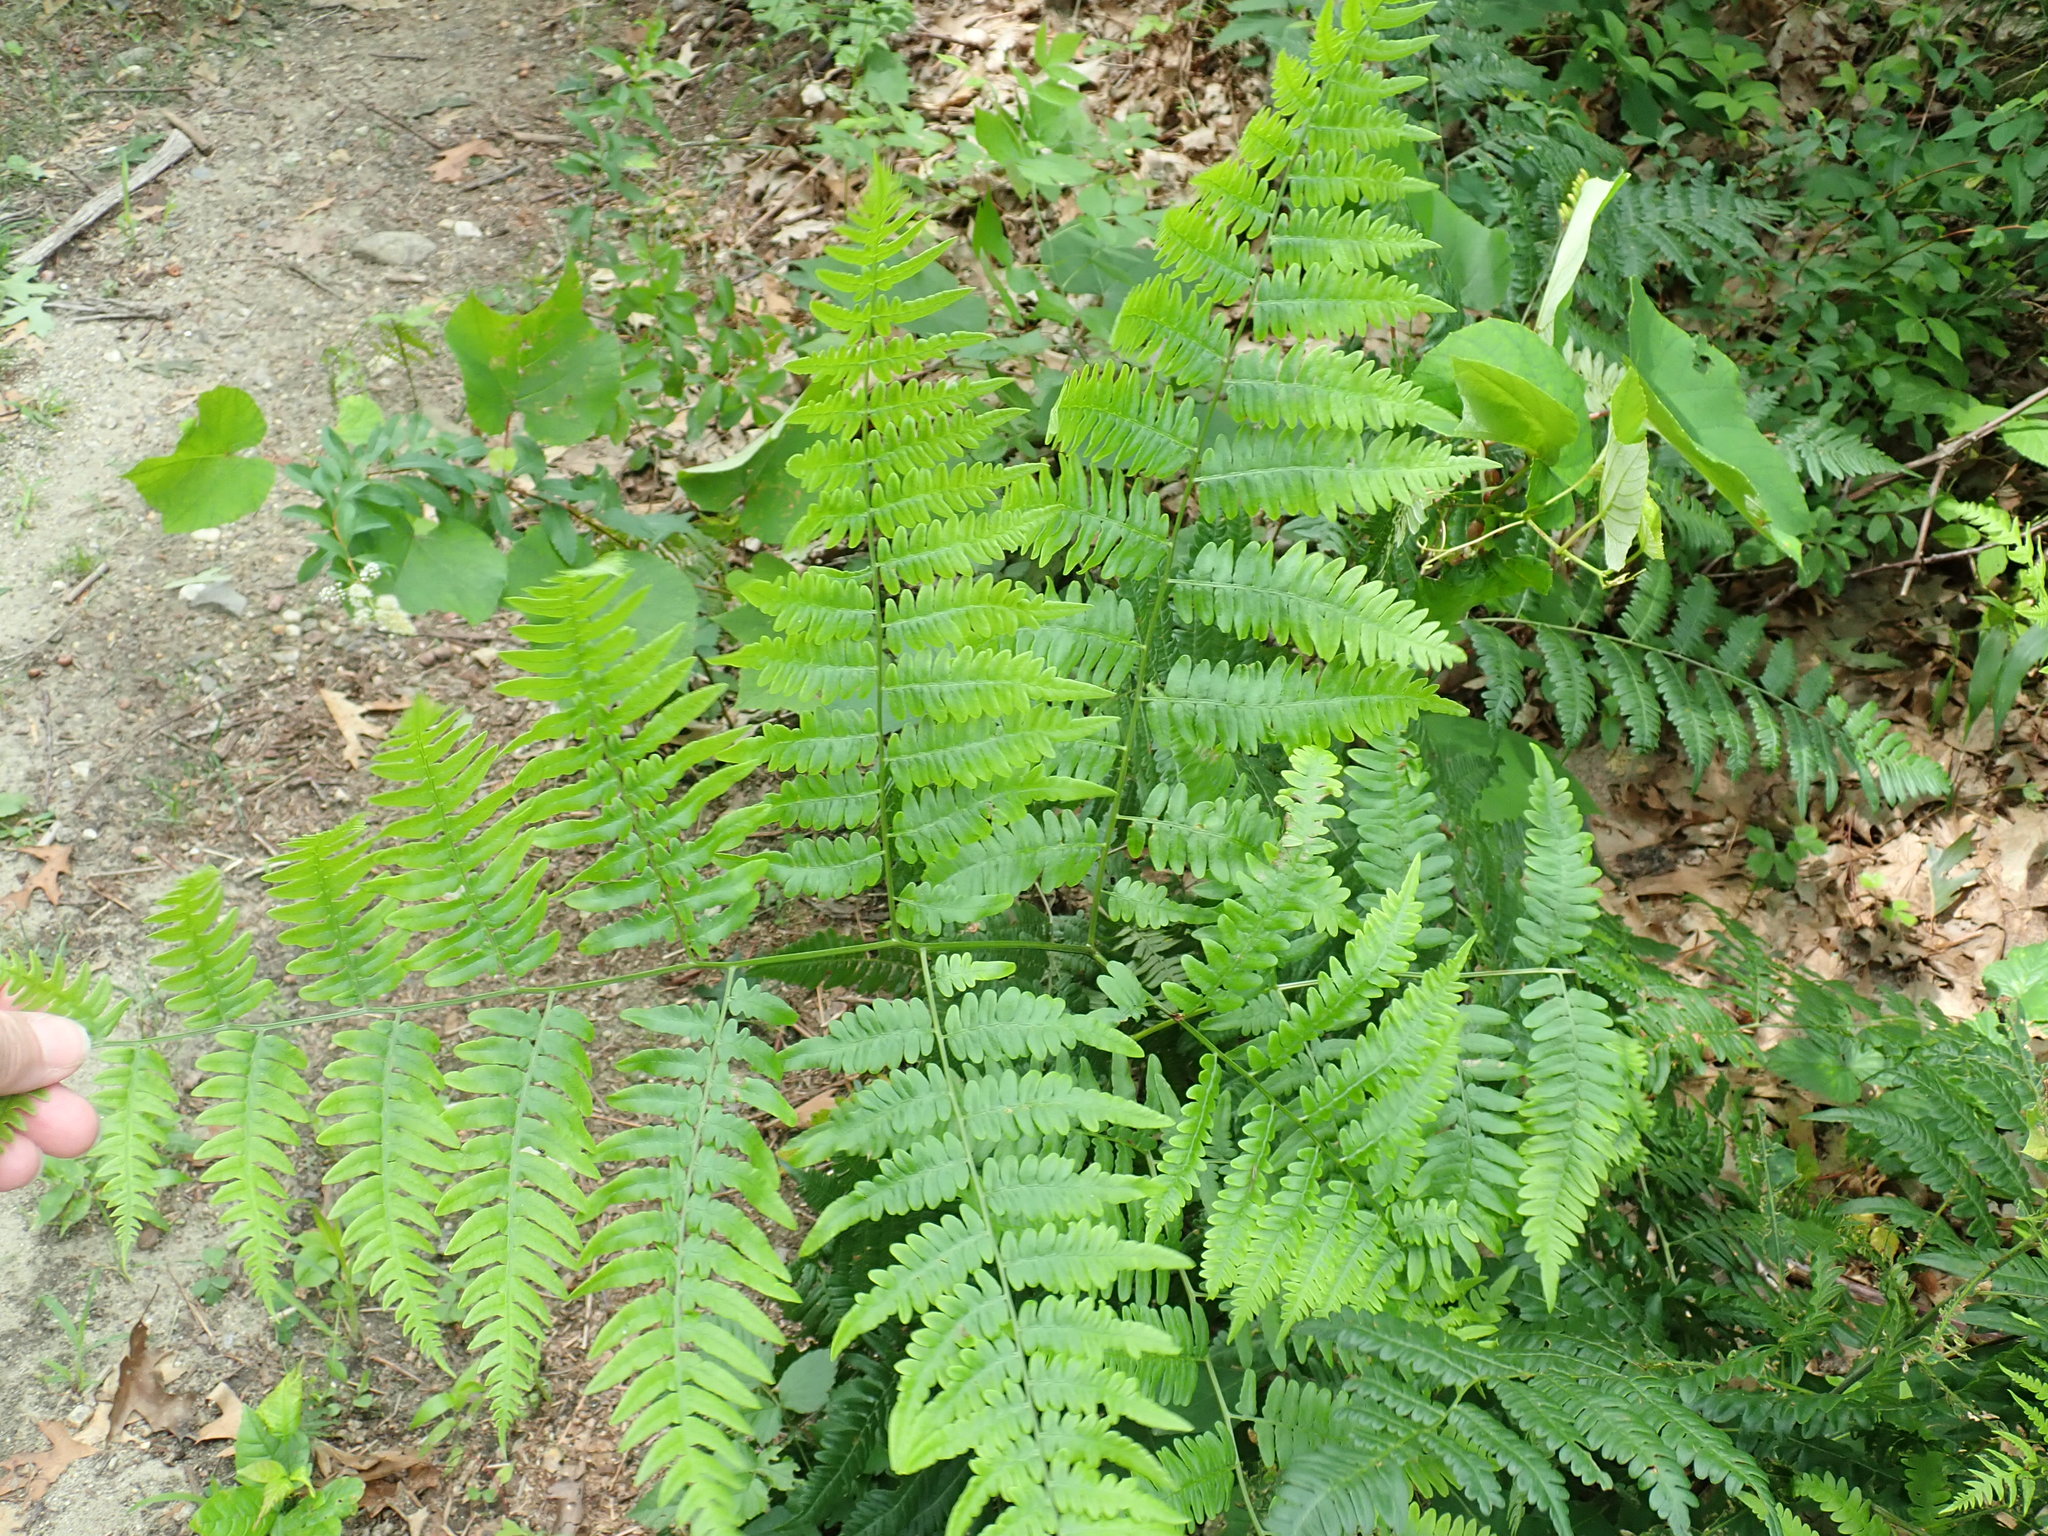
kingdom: Plantae
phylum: Tracheophyta
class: Polypodiopsida
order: Polypodiales
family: Dennstaedtiaceae
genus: Pteridium
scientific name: Pteridium aquilinum
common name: Bracken
